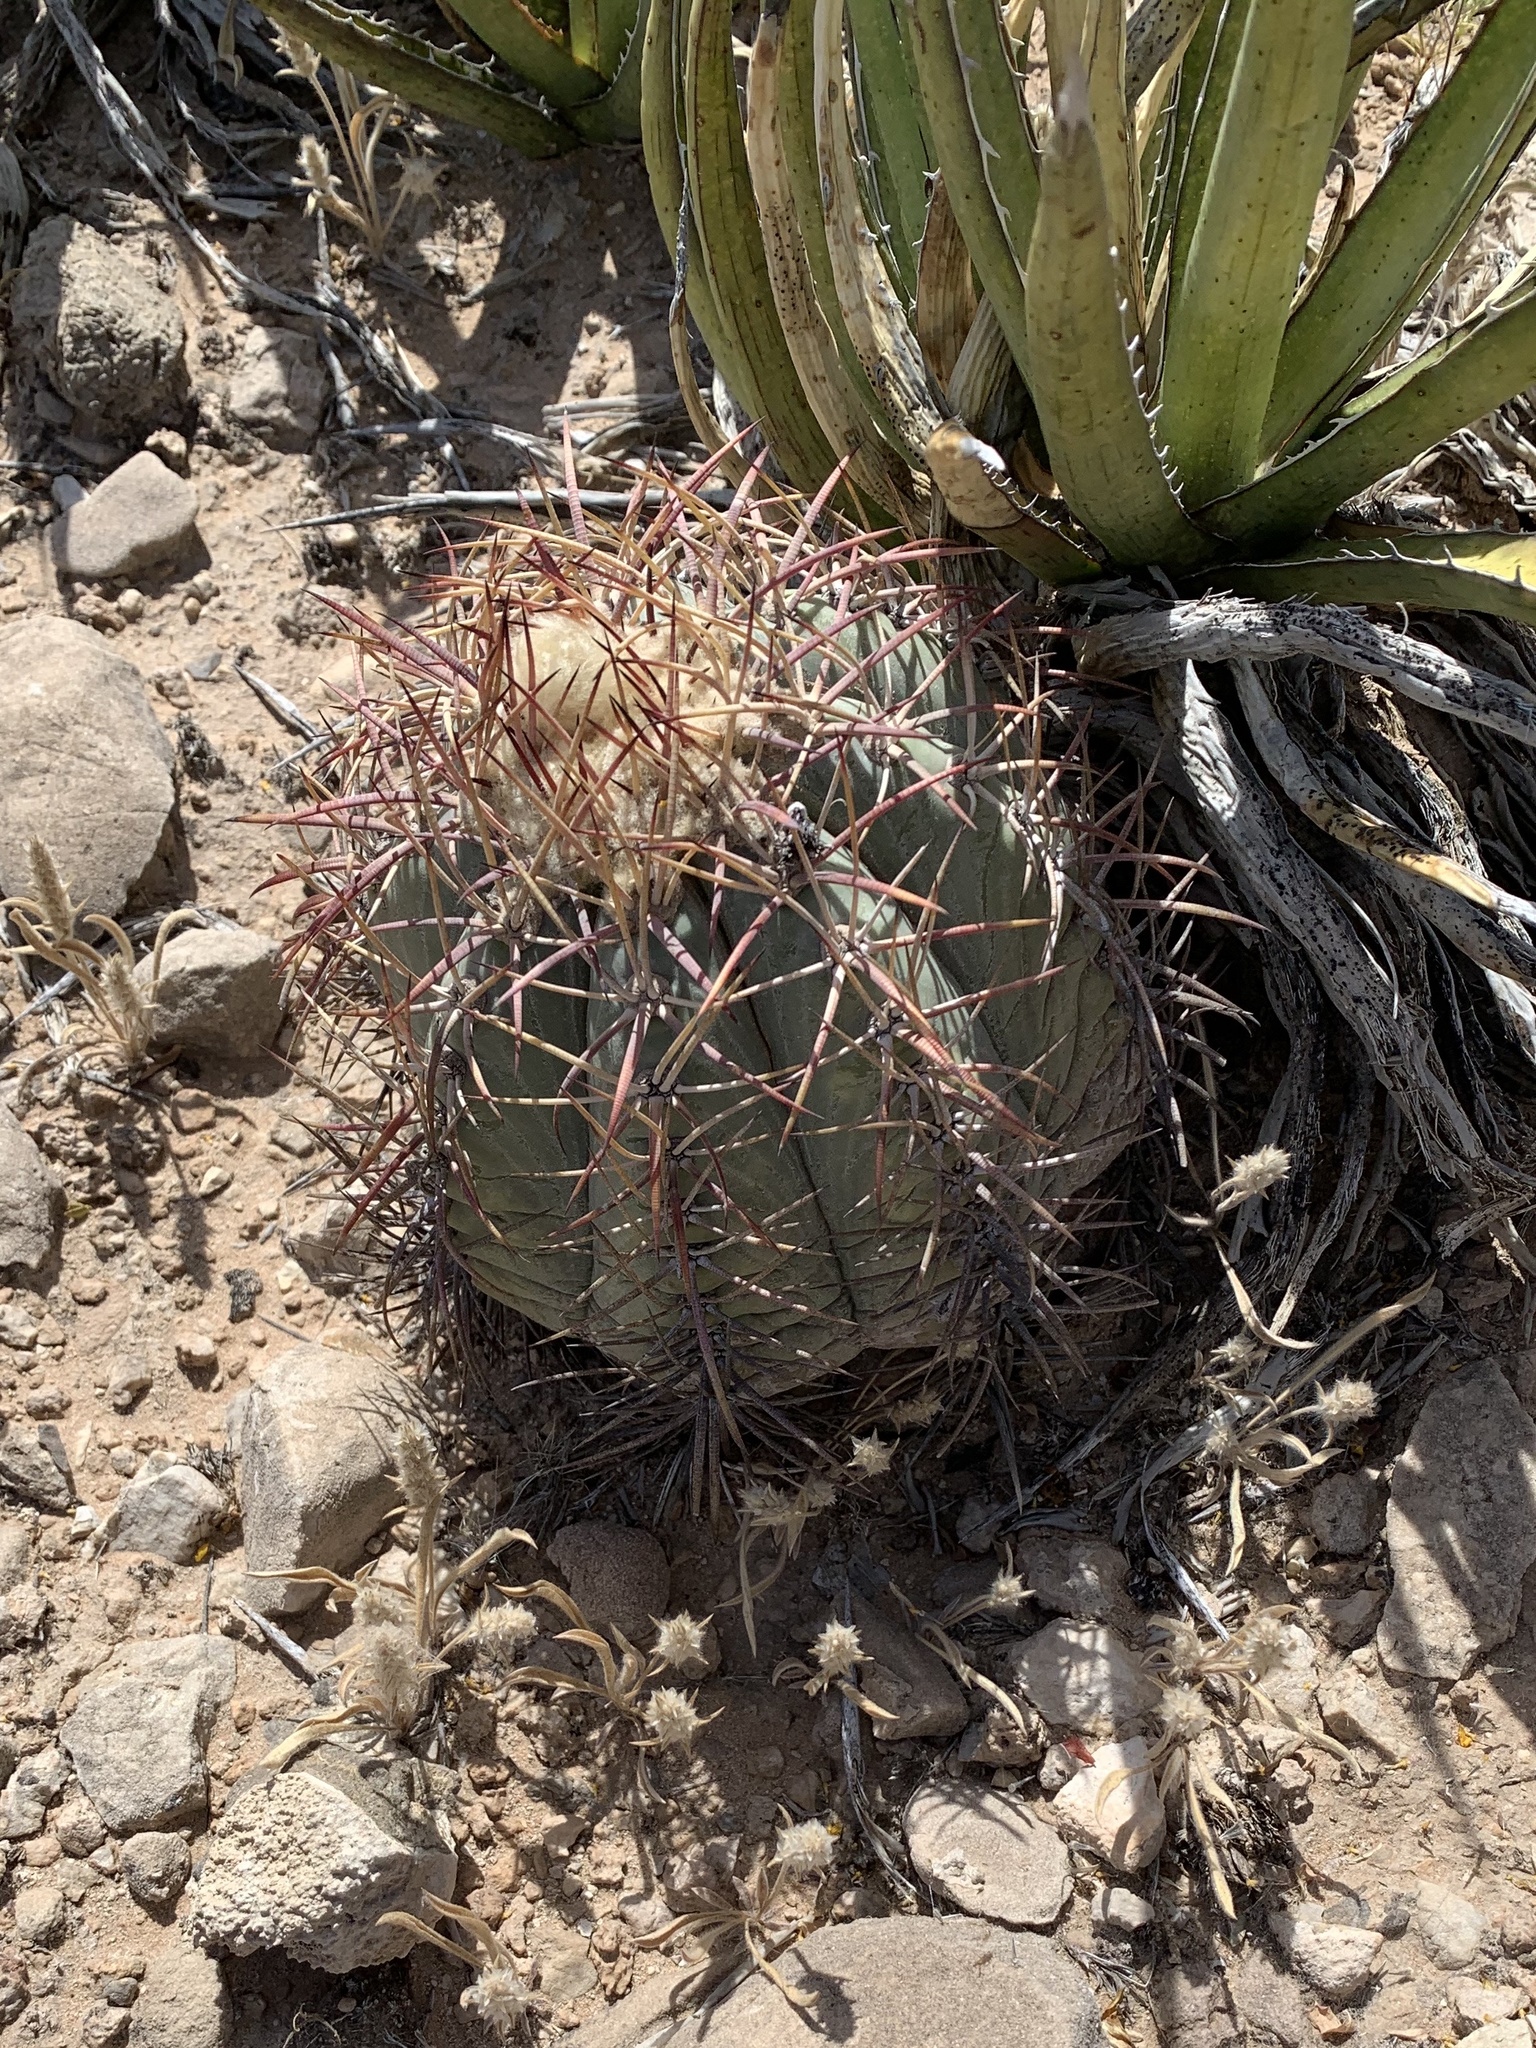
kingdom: Plantae
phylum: Tracheophyta
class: Magnoliopsida
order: Caryophyllales
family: Cactaceae
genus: Echinocactus
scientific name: Echinocactus horizonthalonius
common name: Devilshead
